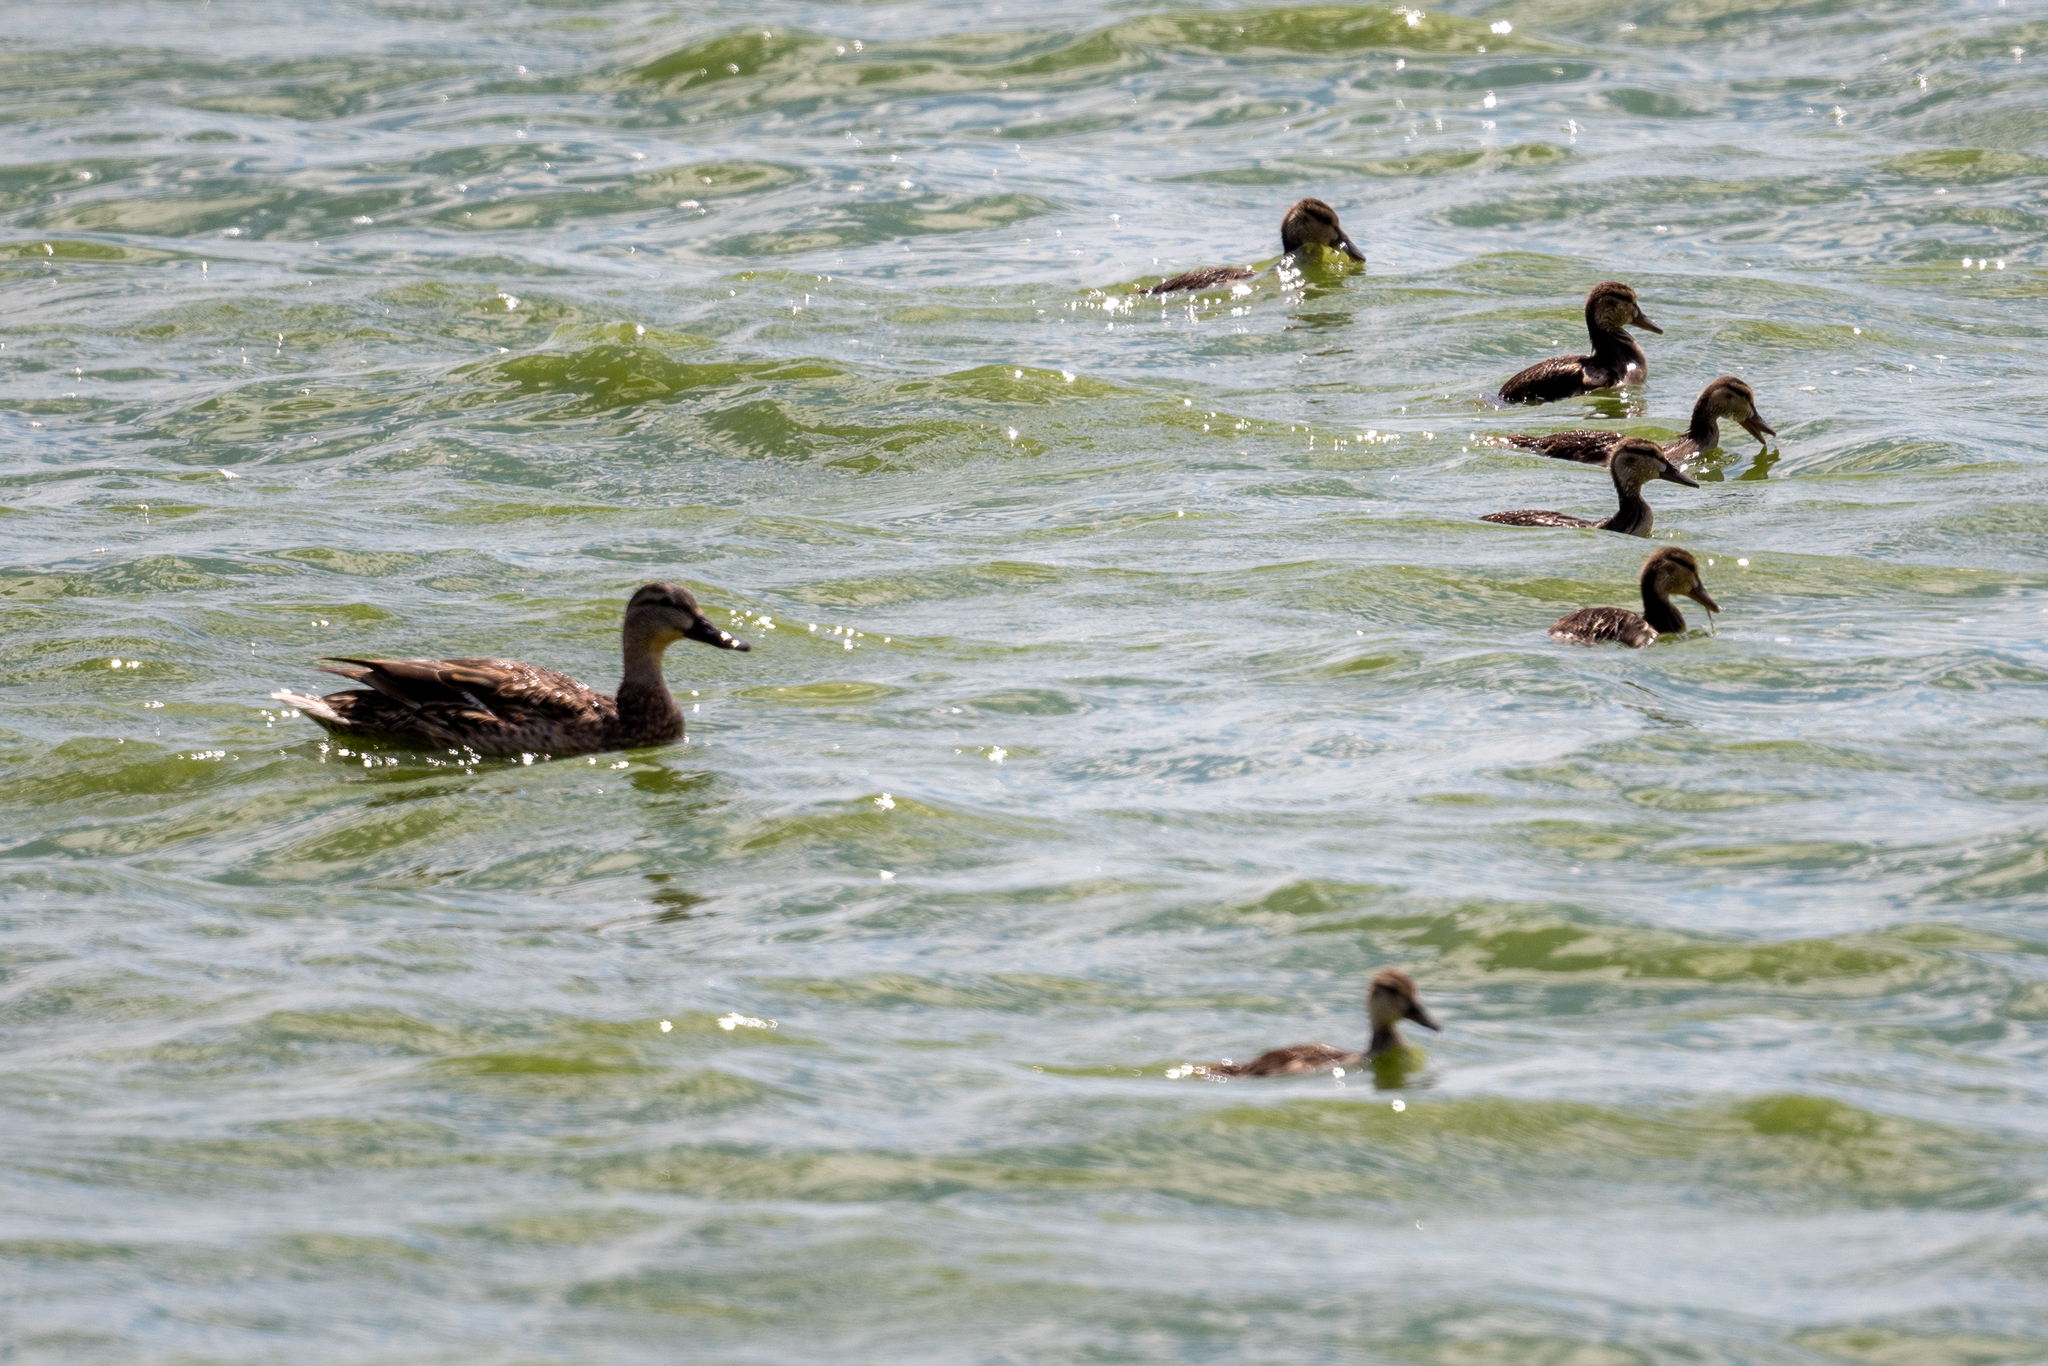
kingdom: Animalia
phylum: Chordata
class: Aves
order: Anseriformes
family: Anatidae
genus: Anas
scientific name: Anas platyrhynchos
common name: Mallard
